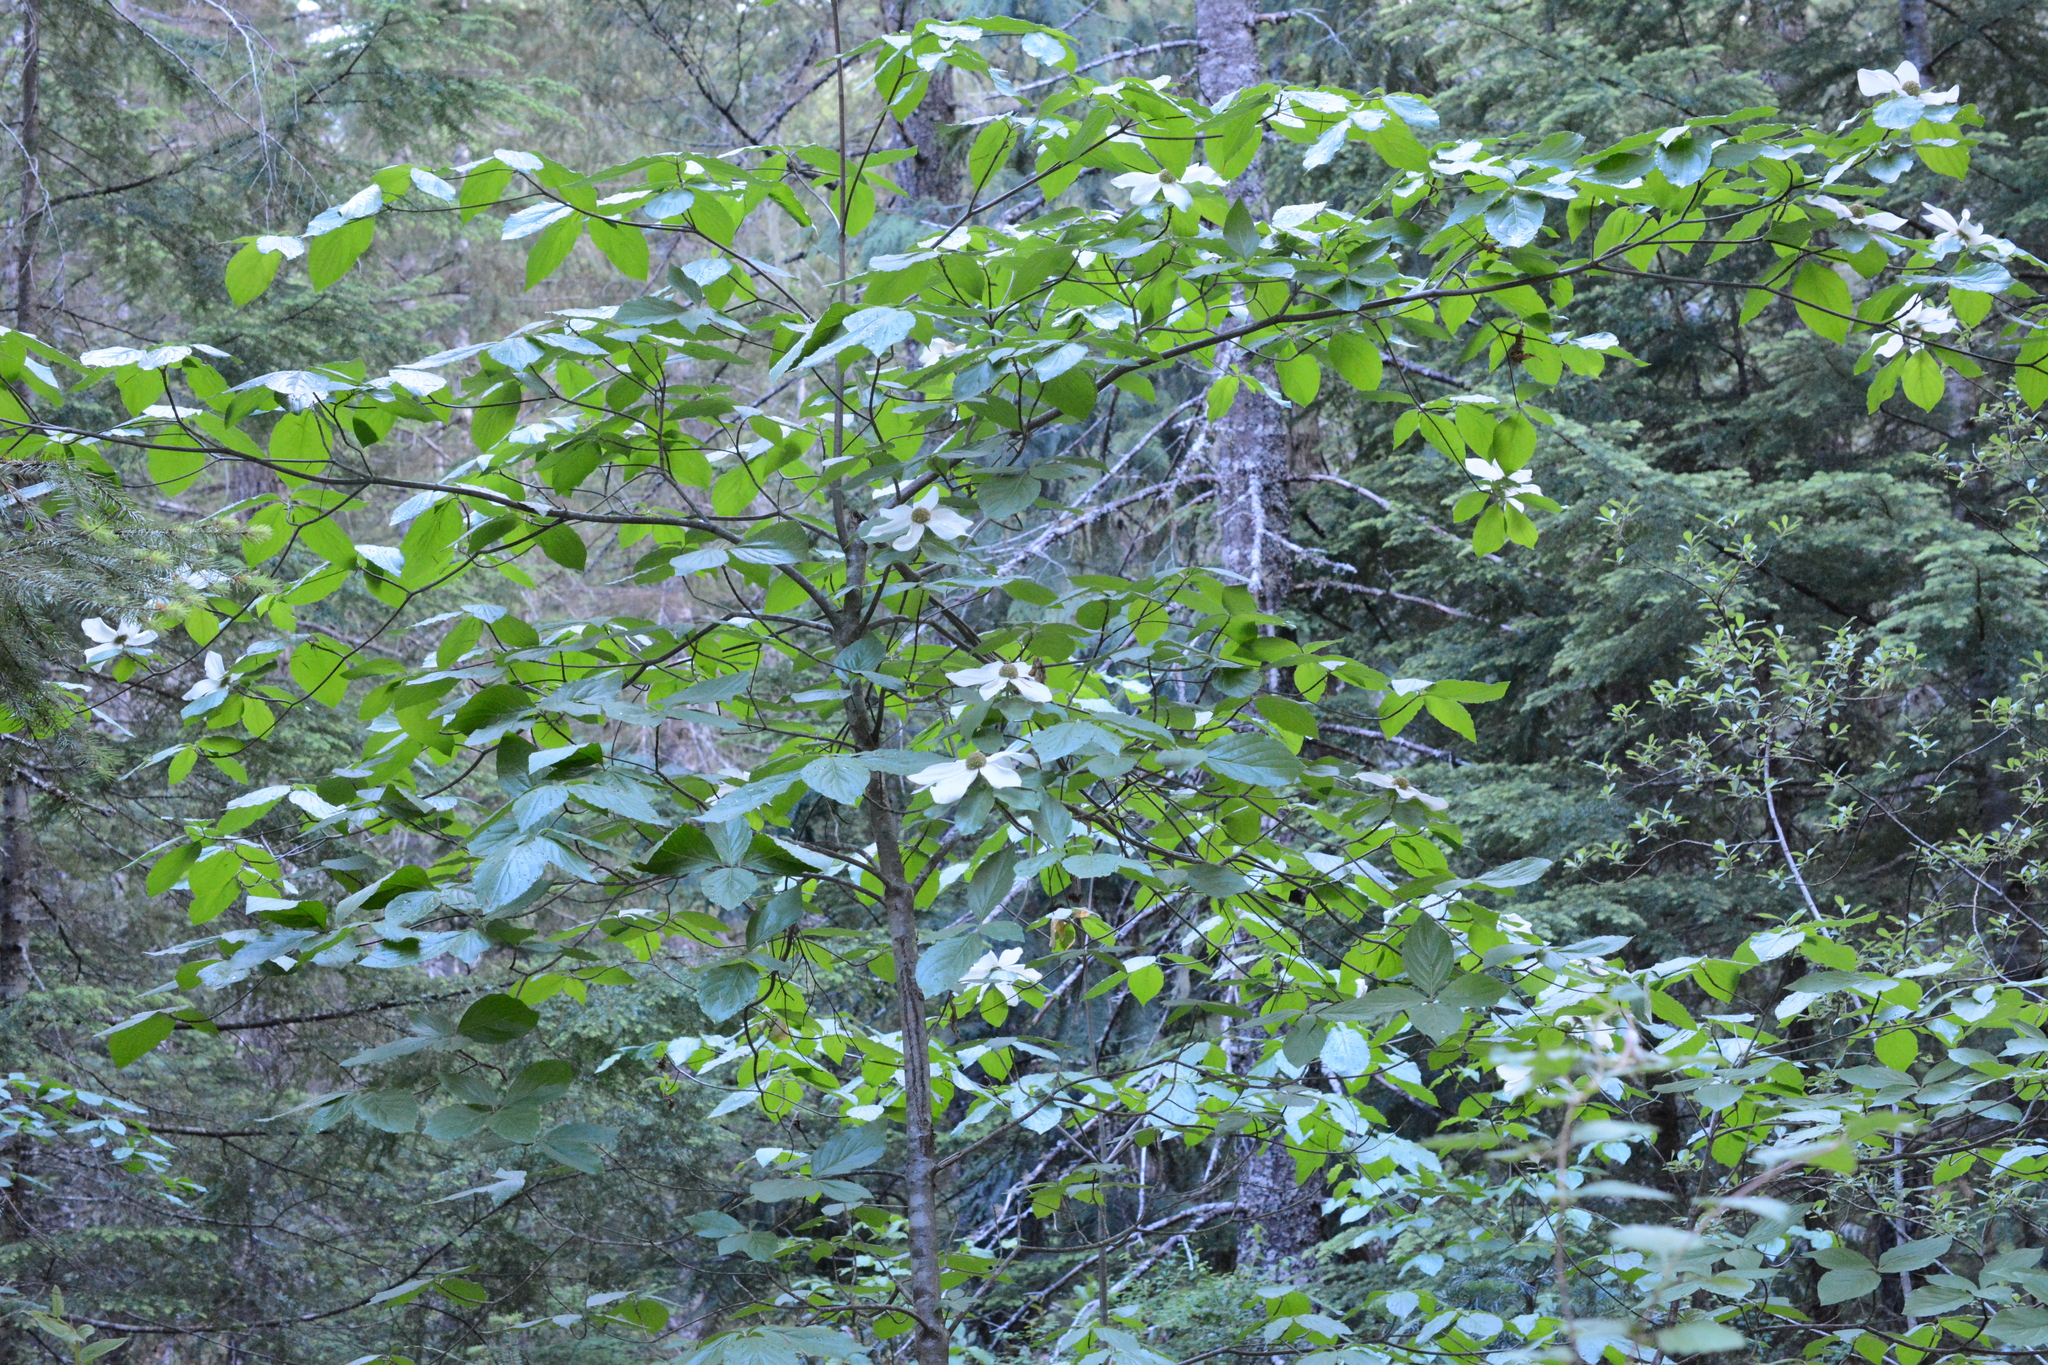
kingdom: Plantae
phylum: Tracheophyta
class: Magnoliopsida
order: Cornales
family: Cornaceae
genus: Cornus
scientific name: Cornus nuttallii
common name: Pacific dogwood
